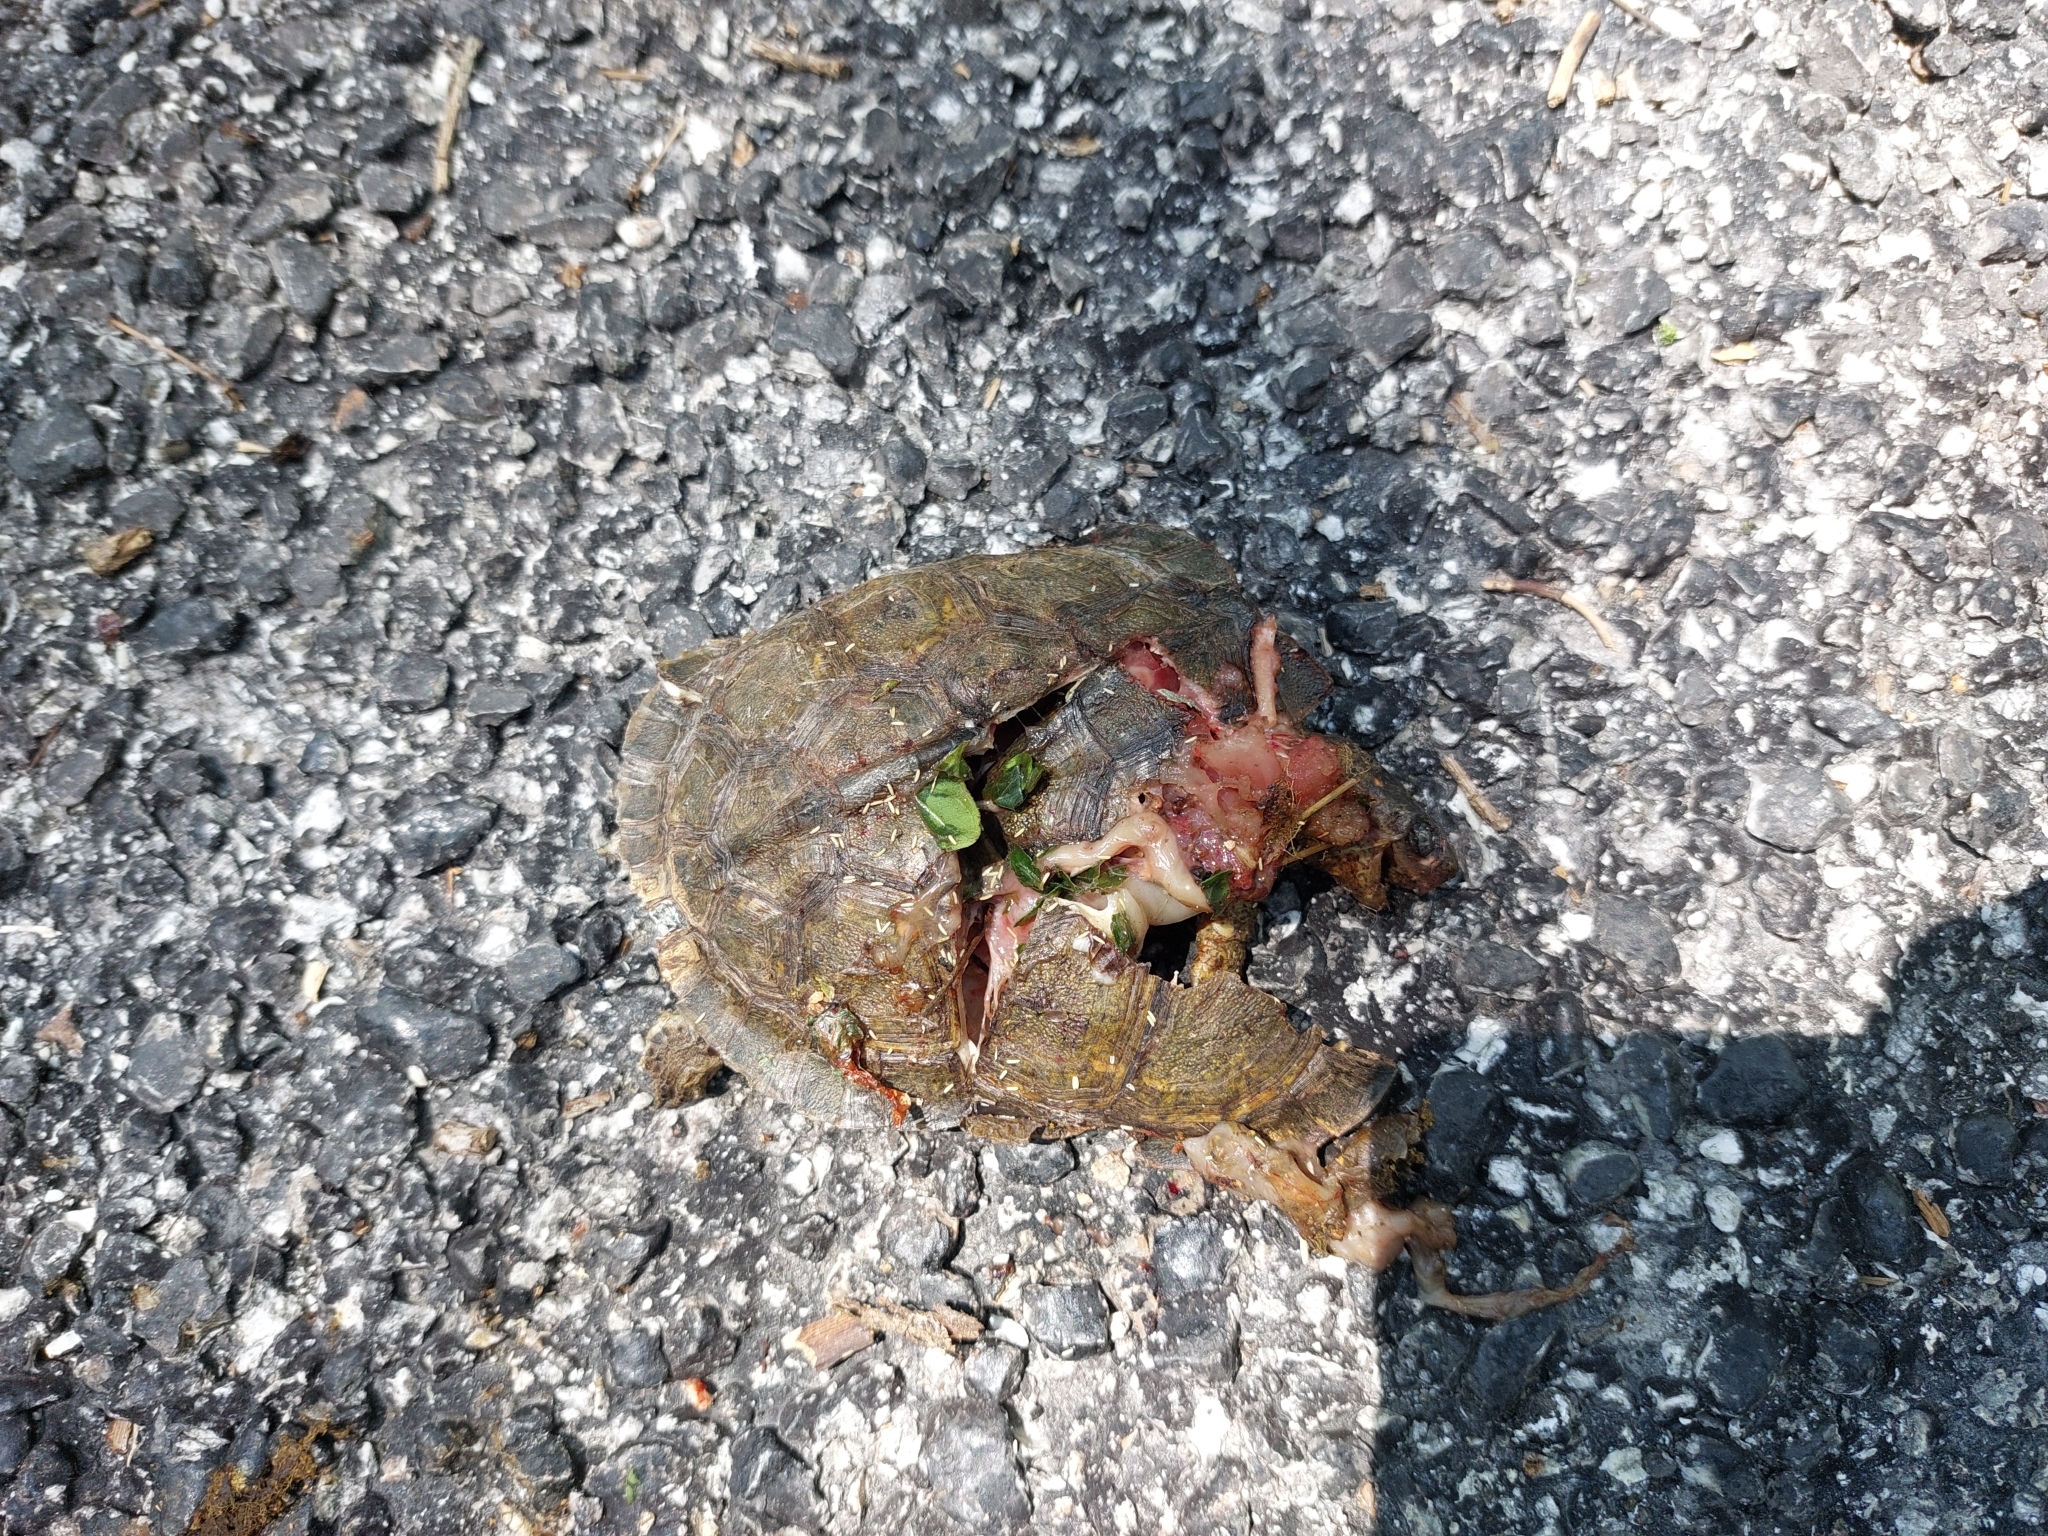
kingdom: Animalia
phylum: Chordata
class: Testudines
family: Geoemydidae
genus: Rhinoclemmys
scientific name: Rhinoclemmys areolata
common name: Furrowed wood turtle
